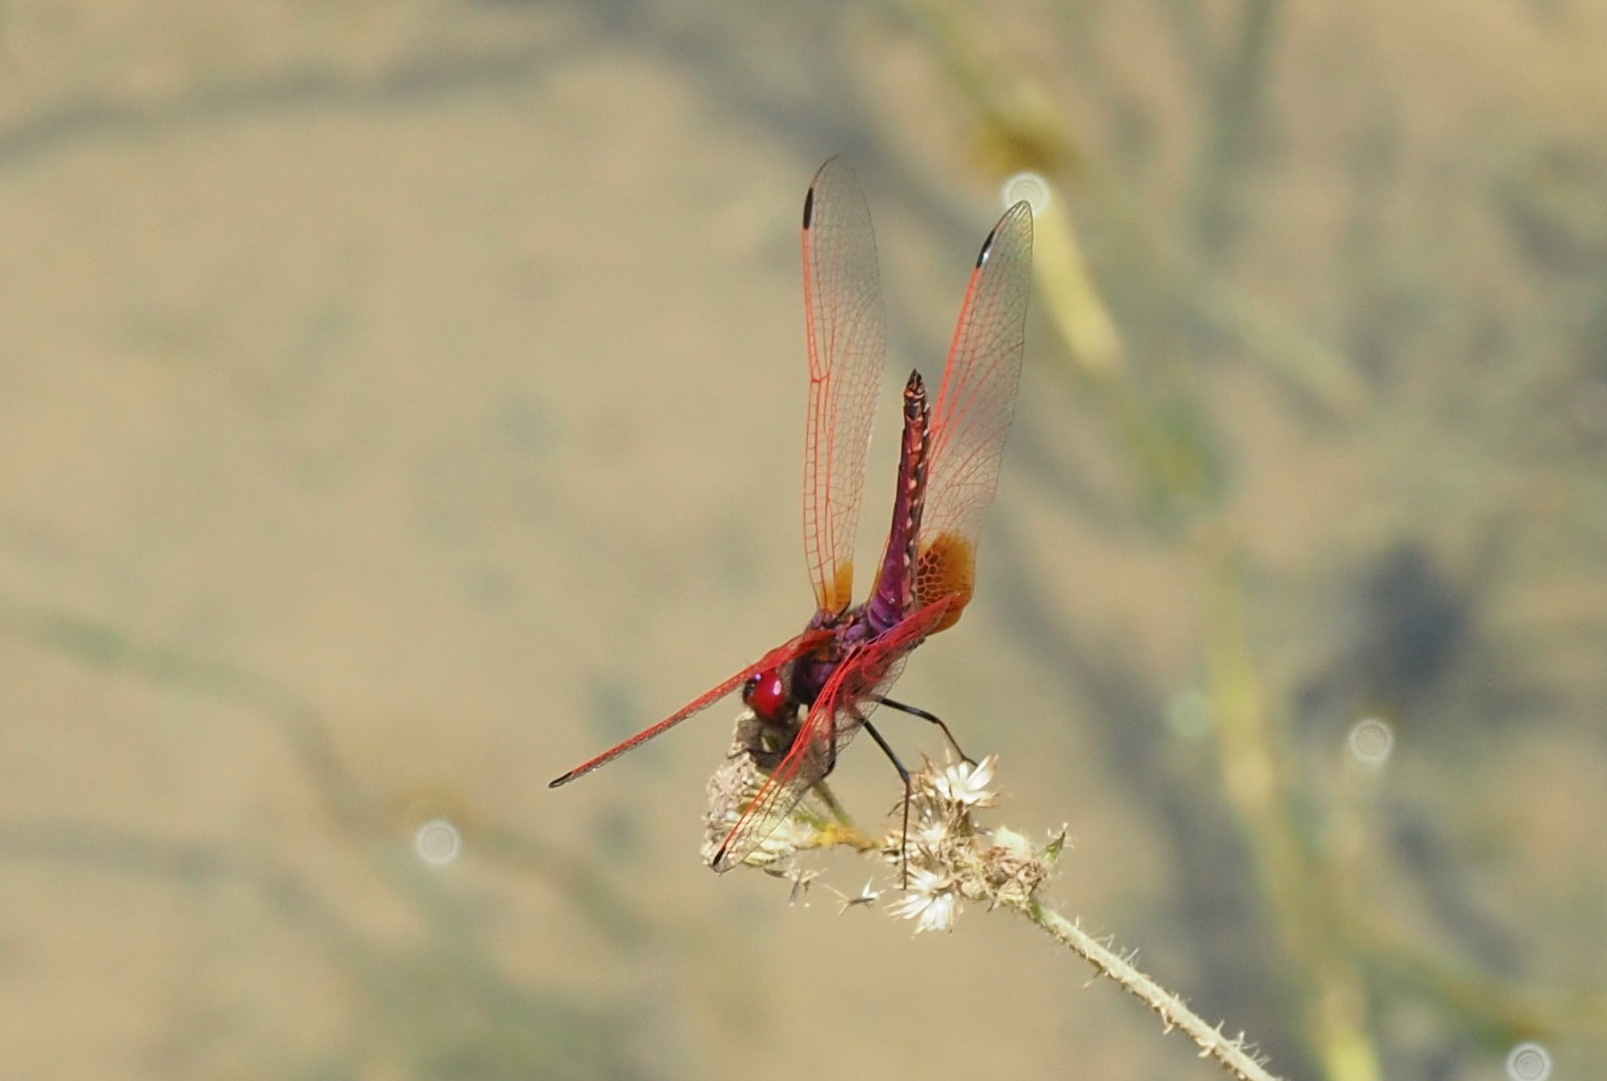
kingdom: Animalia
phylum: Arthropoda
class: Insecta
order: Odonata
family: Libellulidae
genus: Trithemis
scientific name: Trithemis aurora
